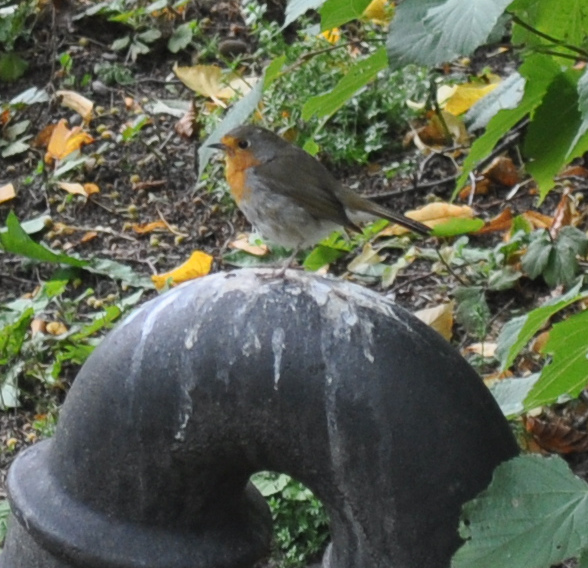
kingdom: Animalia
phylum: Chordata
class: Aves
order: Passeriformes
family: Muscicapidae
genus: Erithacus
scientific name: Erithacus rubecula
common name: European robin
